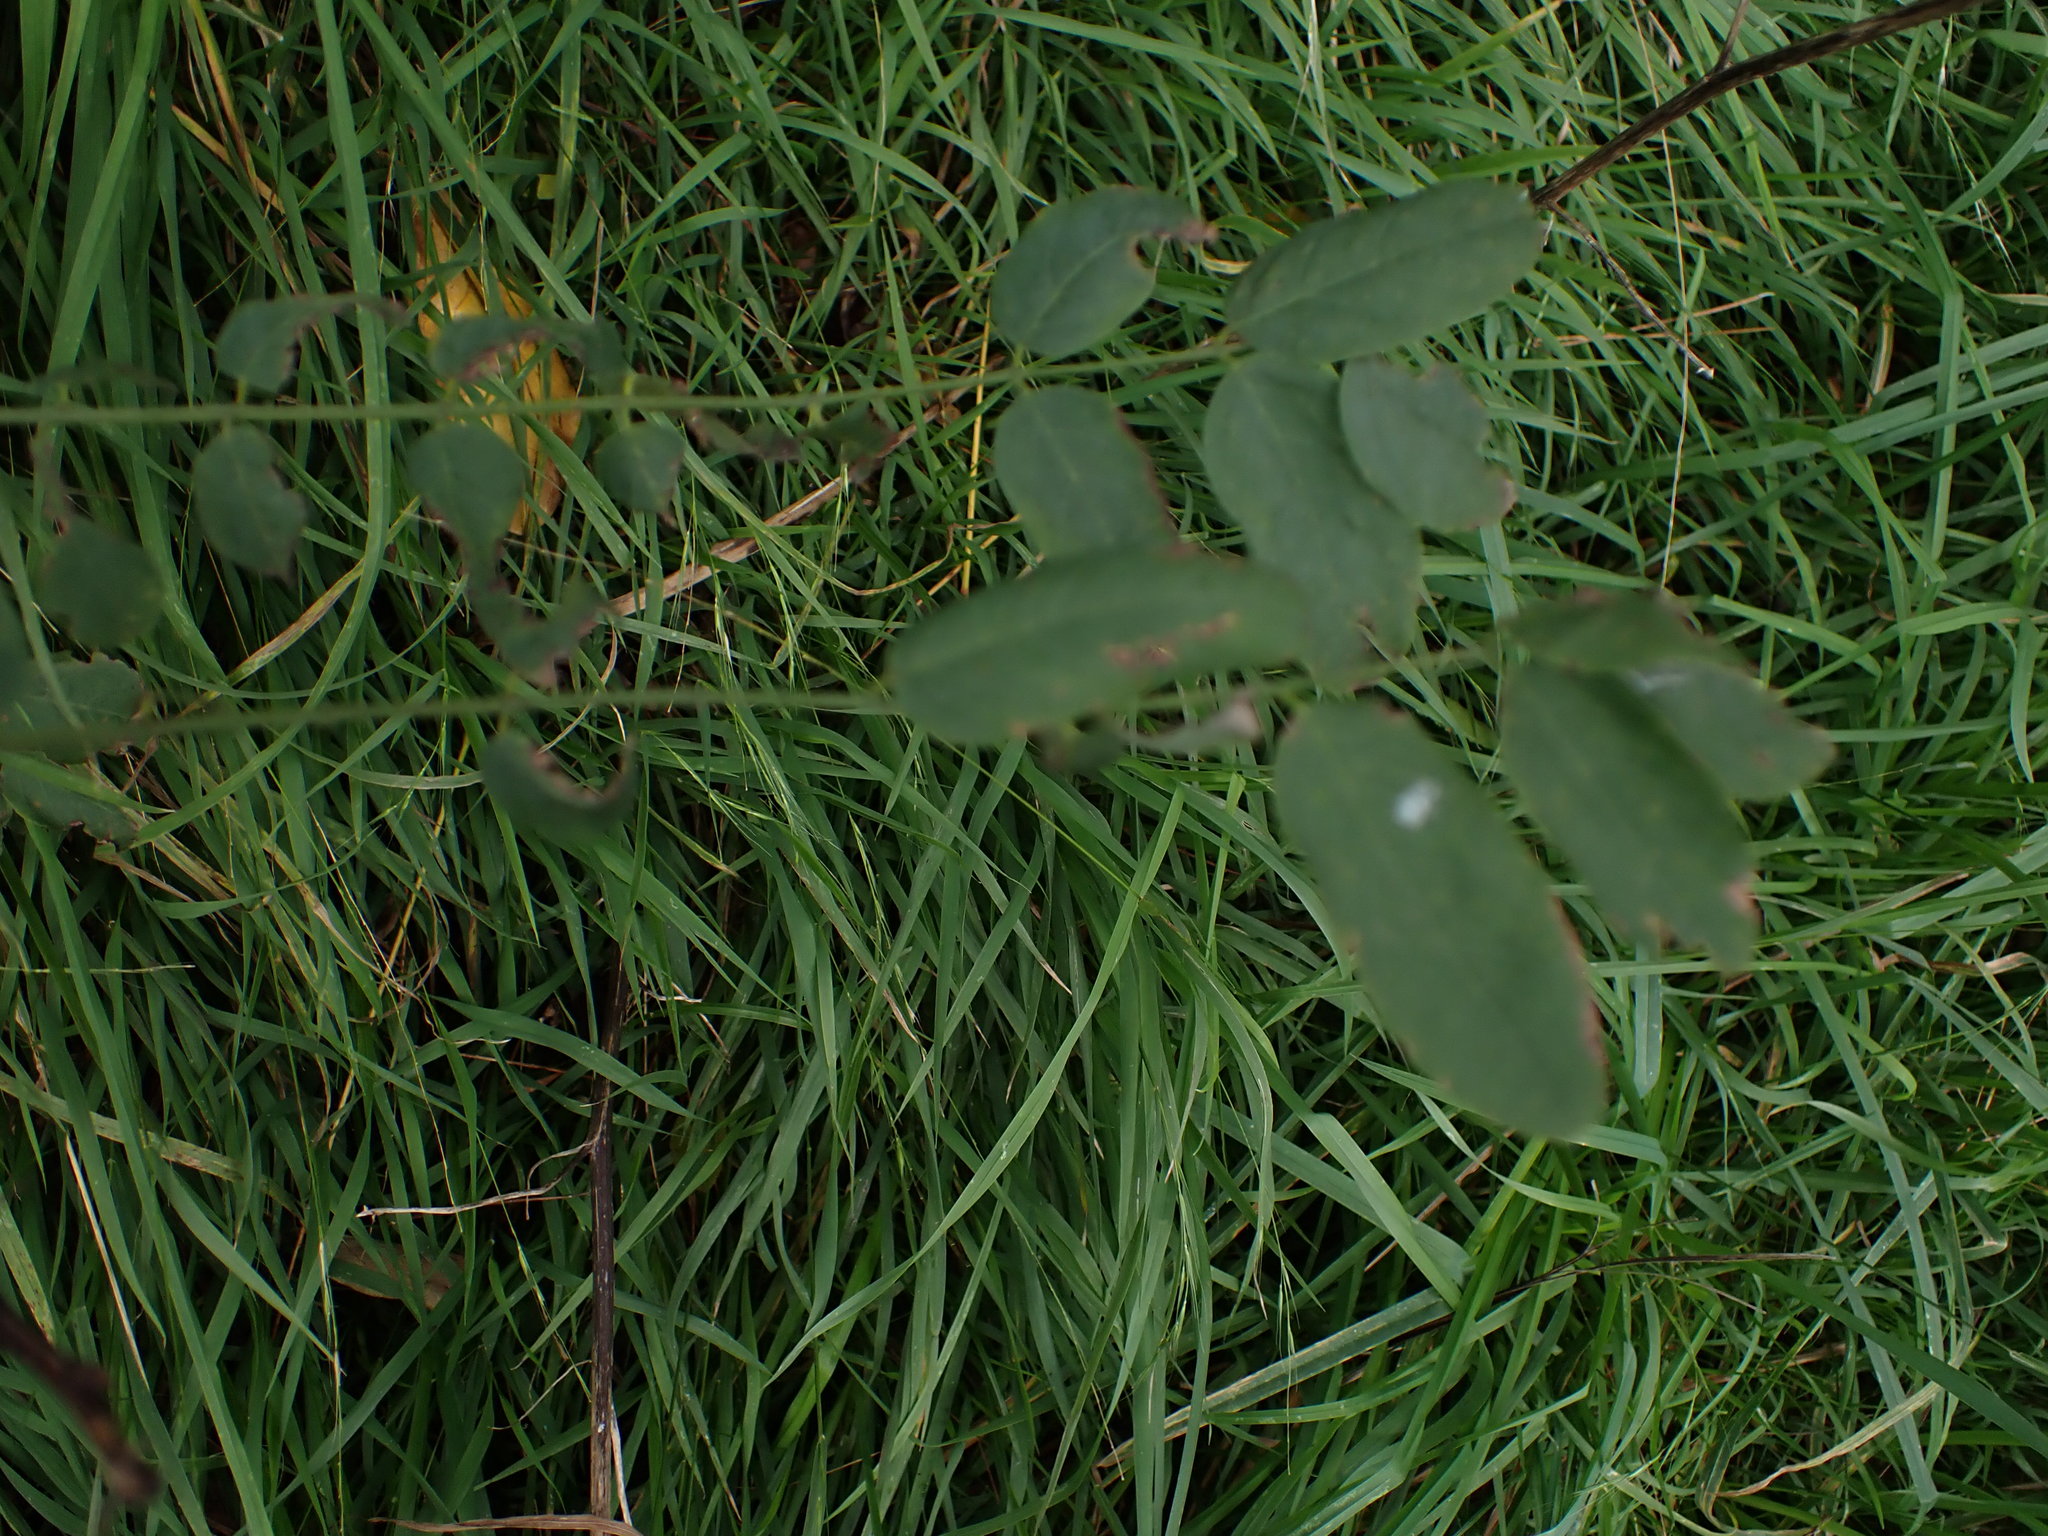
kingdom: Plantae
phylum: Tracheophyta
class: Magnoliopsida
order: Fabales
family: Fabaceae
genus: Robinia
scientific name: Robinia pseudoacacia
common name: Black locust
